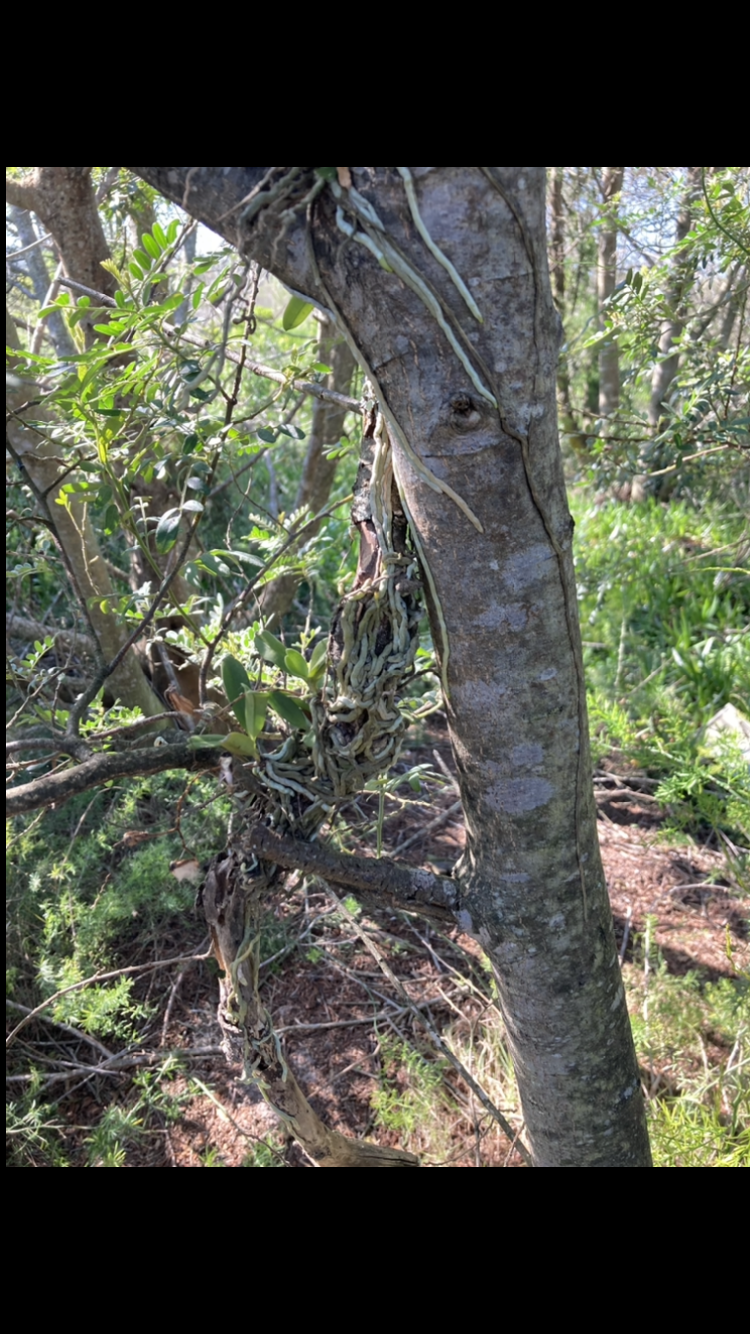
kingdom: Plantae
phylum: Tracheophyta
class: Liliopsida
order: Asparagales
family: Orchidaceae
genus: Mystacidium
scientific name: Mystacidium capense
